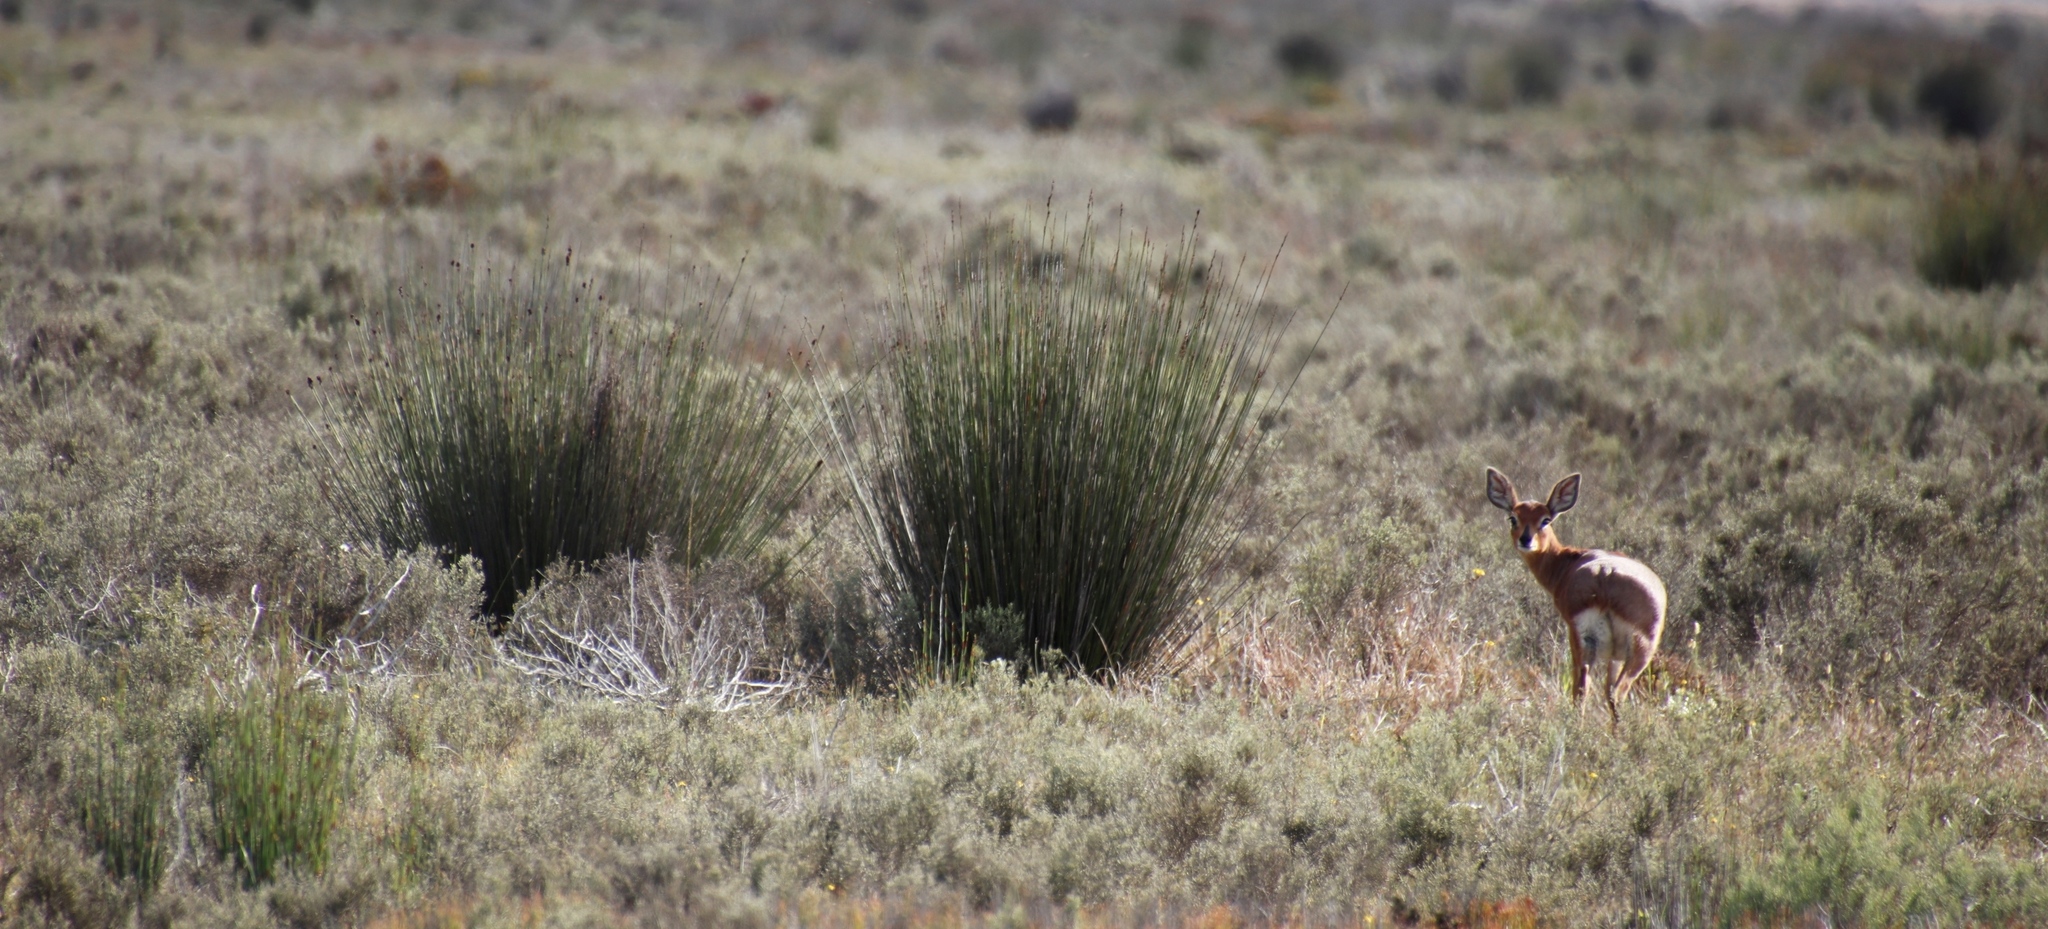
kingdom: Animalia
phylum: Chordata
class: Mammalia
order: Artiodactyla
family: Bovidae
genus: Raphicerus
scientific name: Raphicerus campestris
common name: Steenbok
